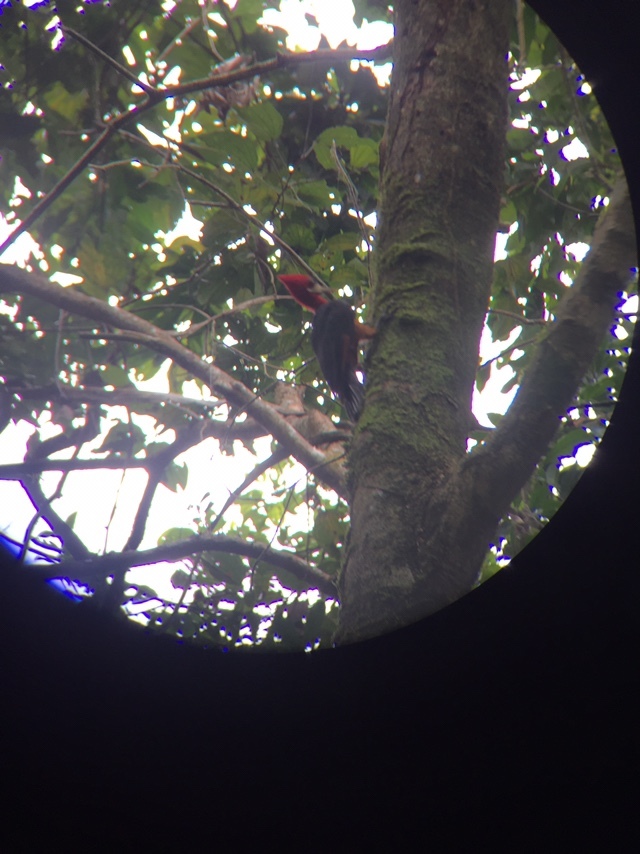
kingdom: Animalia
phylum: Chordata
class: Aves
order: Piciformes
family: Picidae
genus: Campephilus
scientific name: Campephilus rubricollis
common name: Red-necked woodpecker
